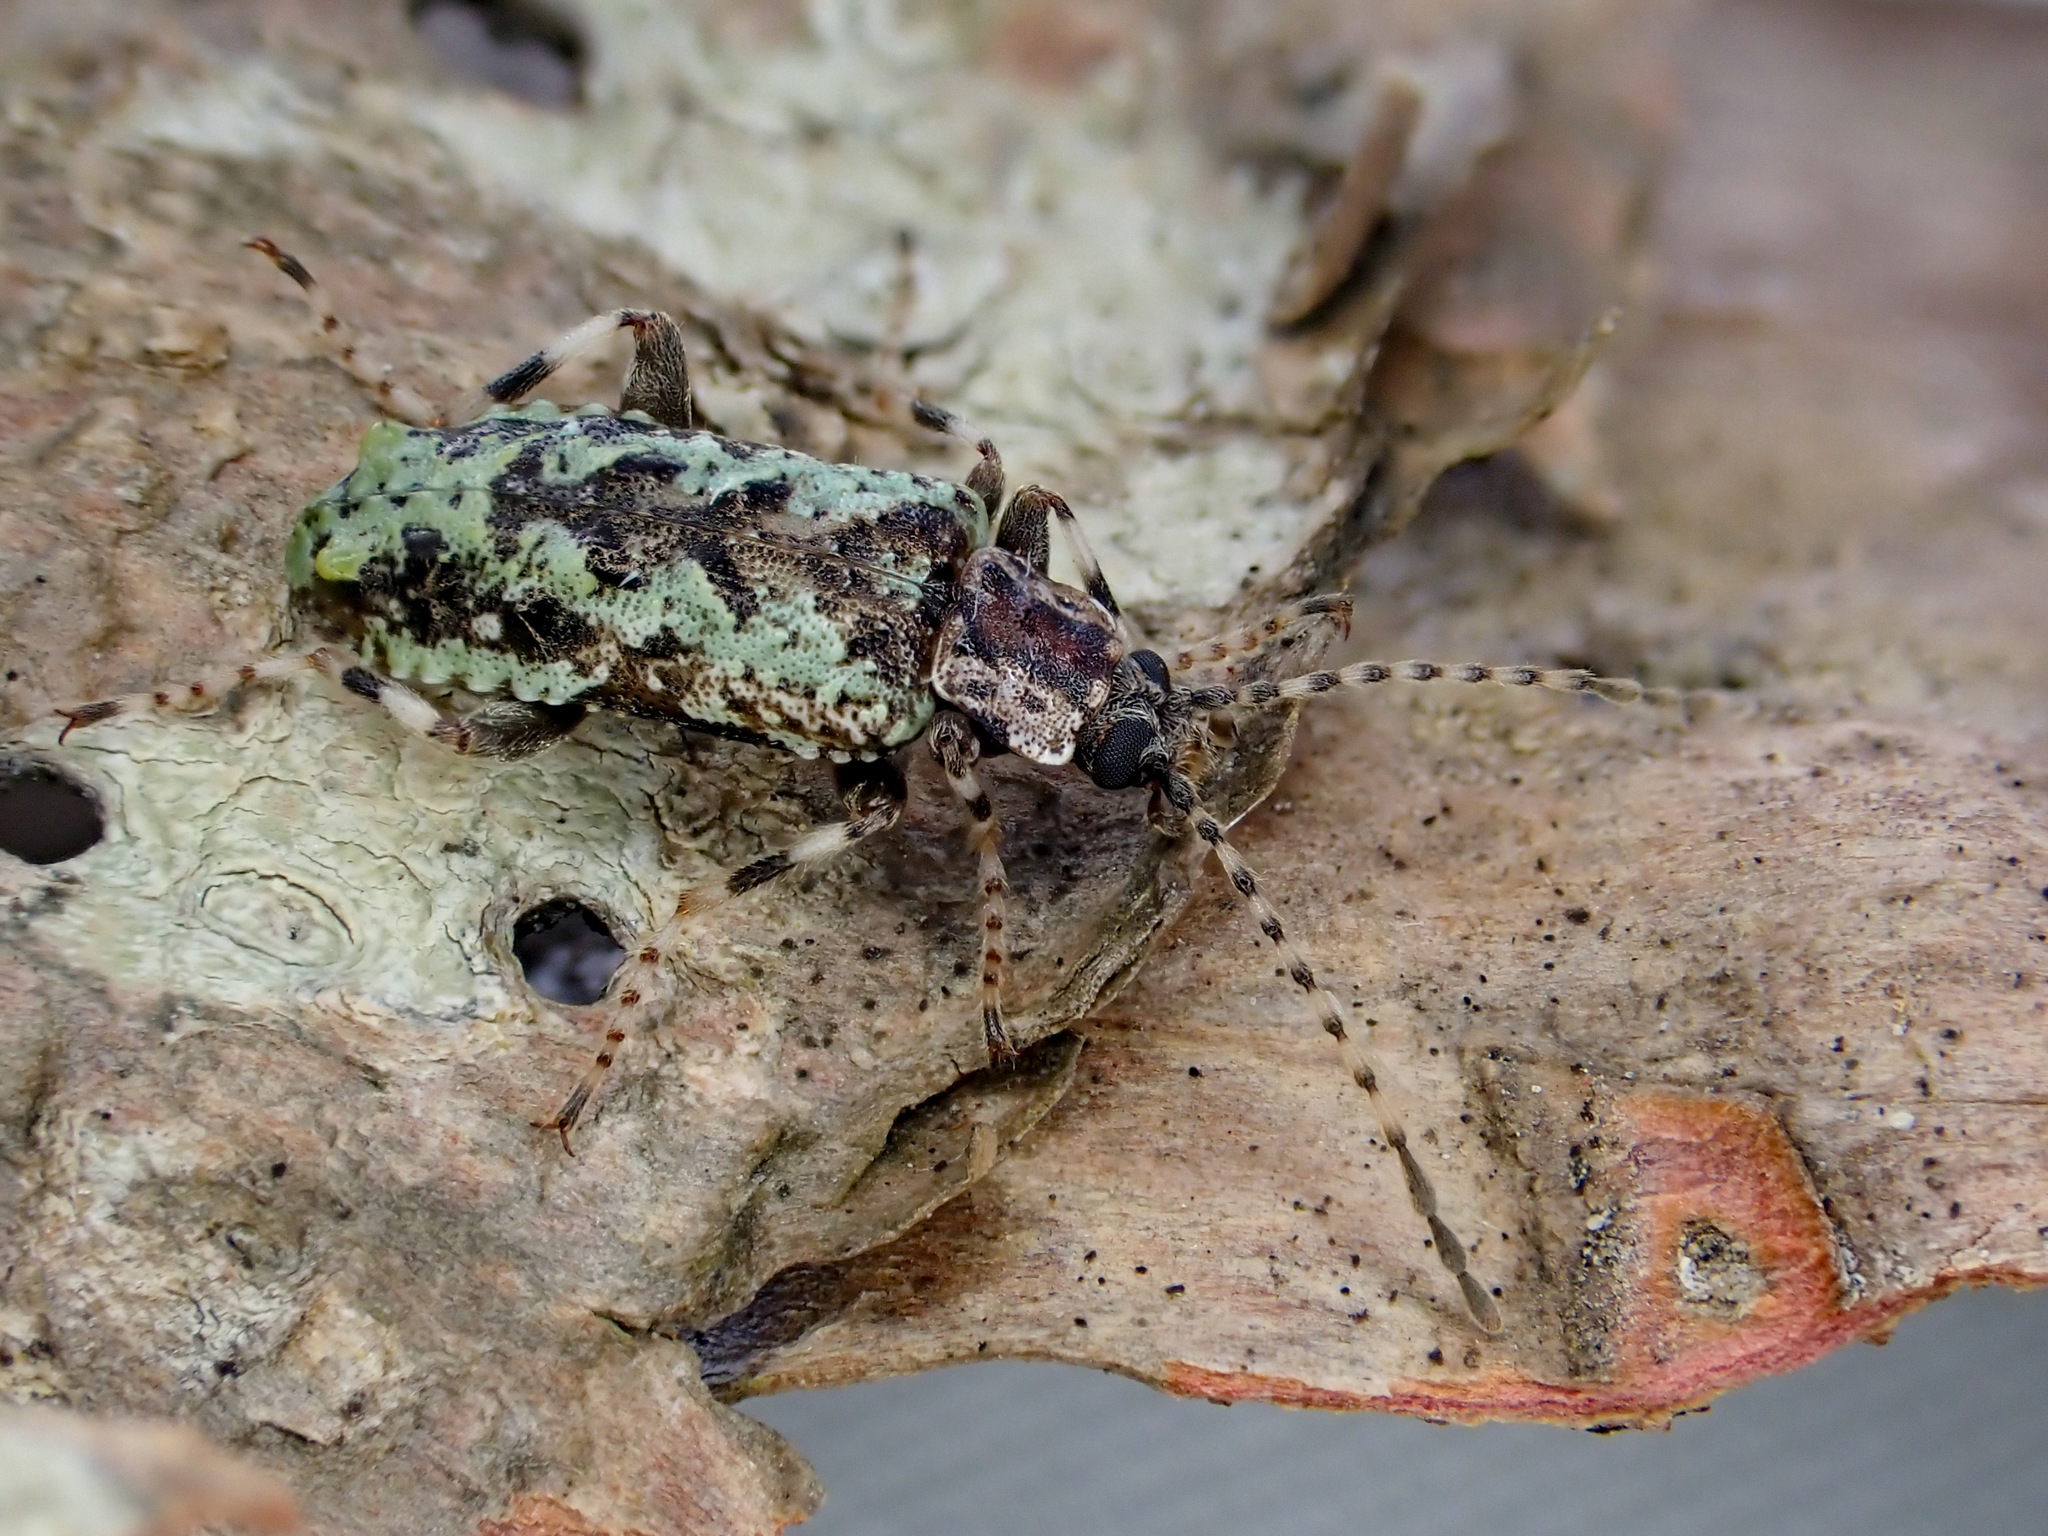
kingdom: Animalia
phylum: Arthropoda
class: Insecta
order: Coleoptera
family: Chalcodryidae
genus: Onysius
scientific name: Onysius anomalus
